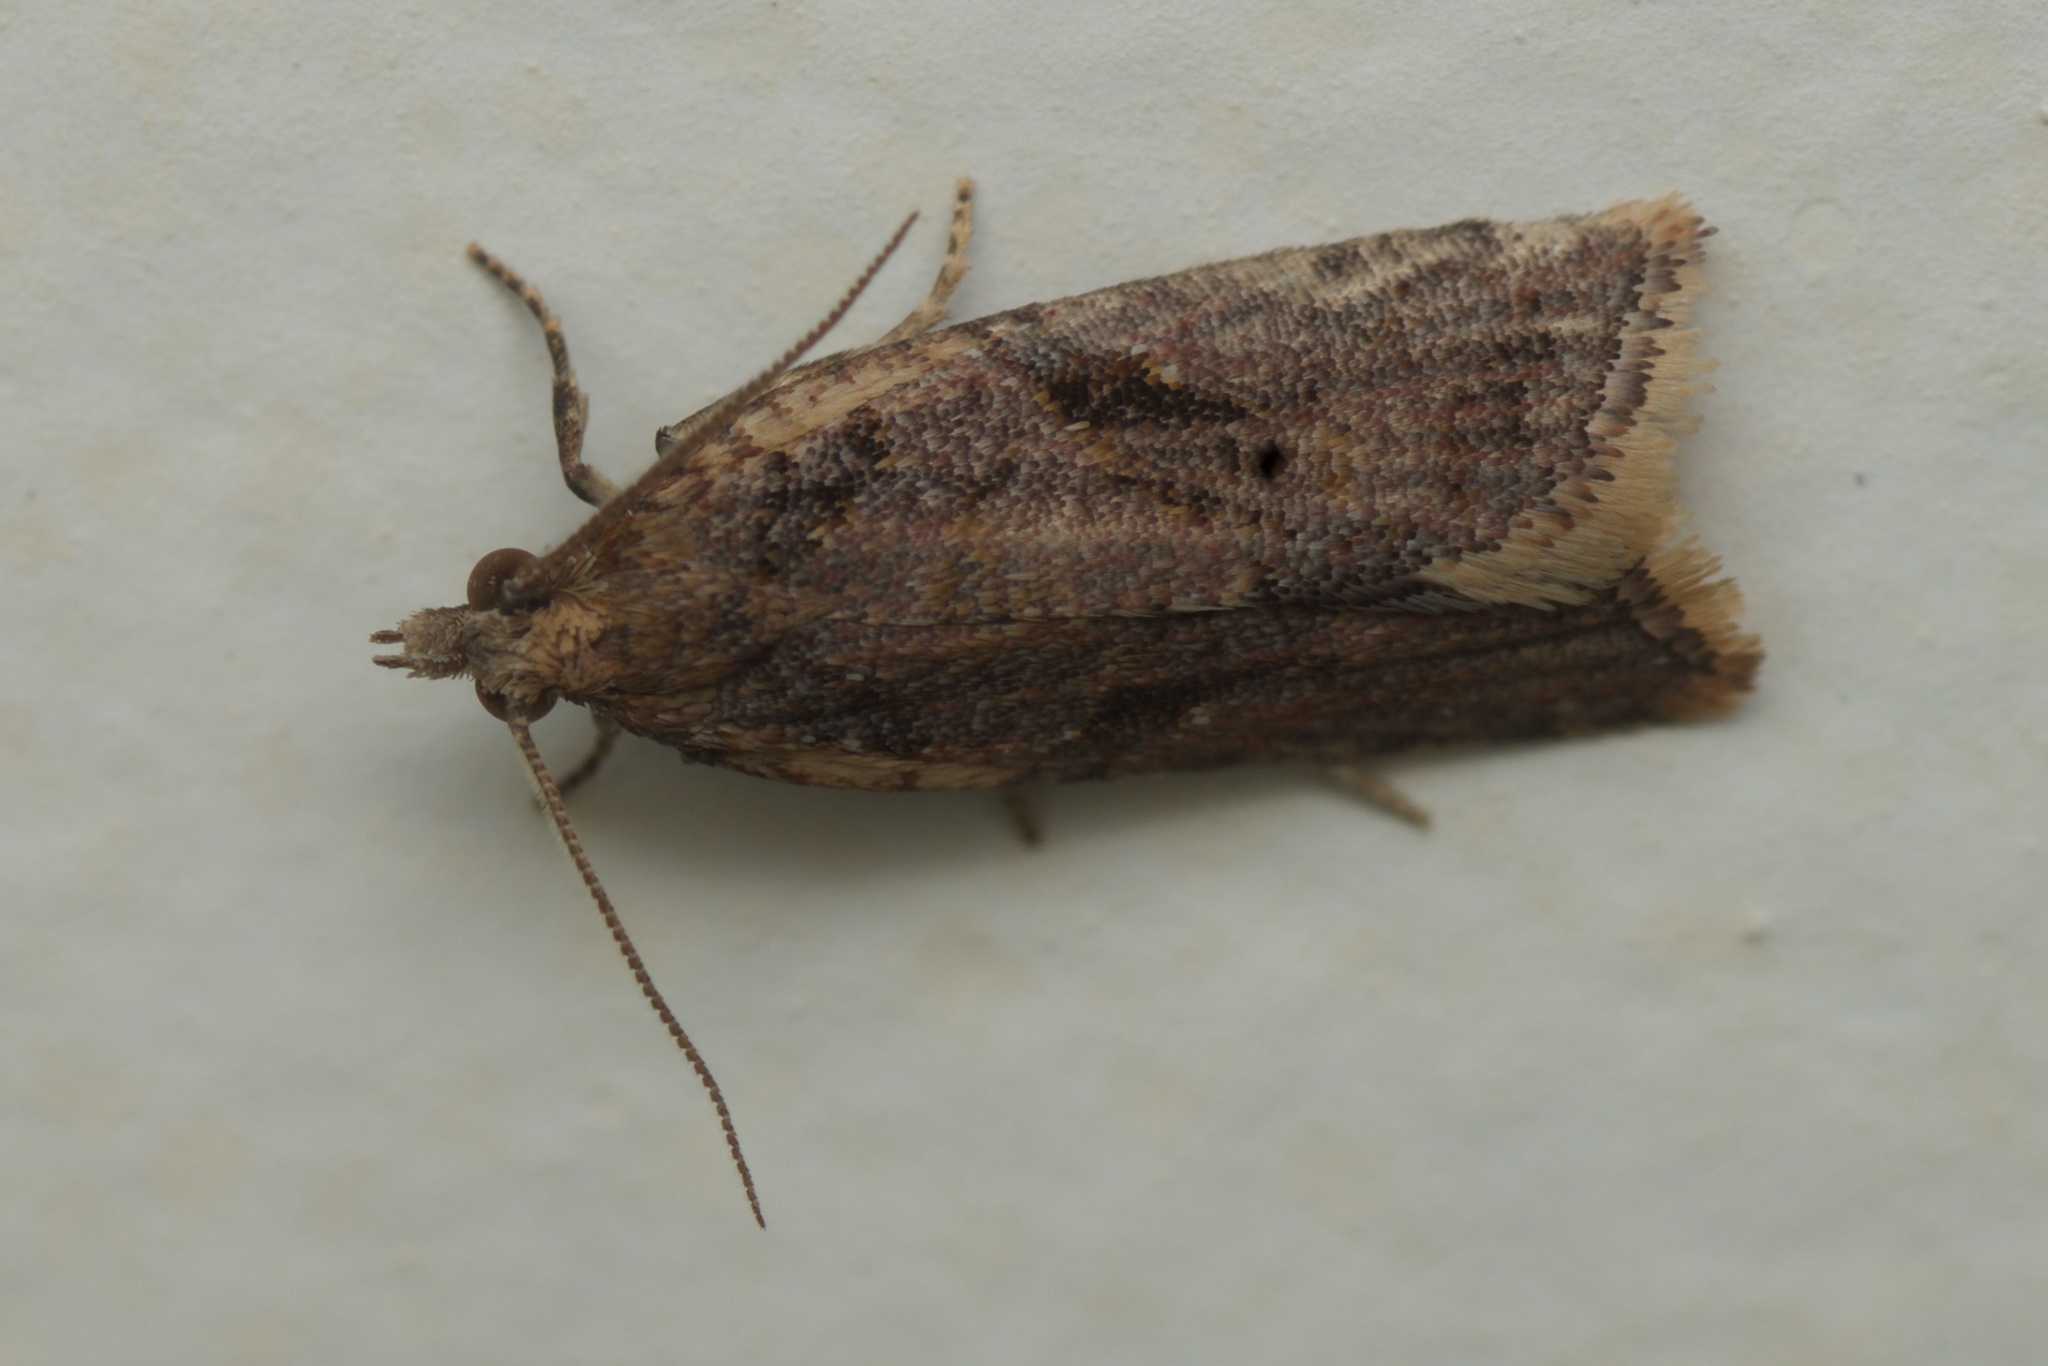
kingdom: Animalia
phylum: Arthropoda
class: Insecta
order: Lepidoptera
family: Tortricidae
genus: Capua
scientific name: Capua semiferana
